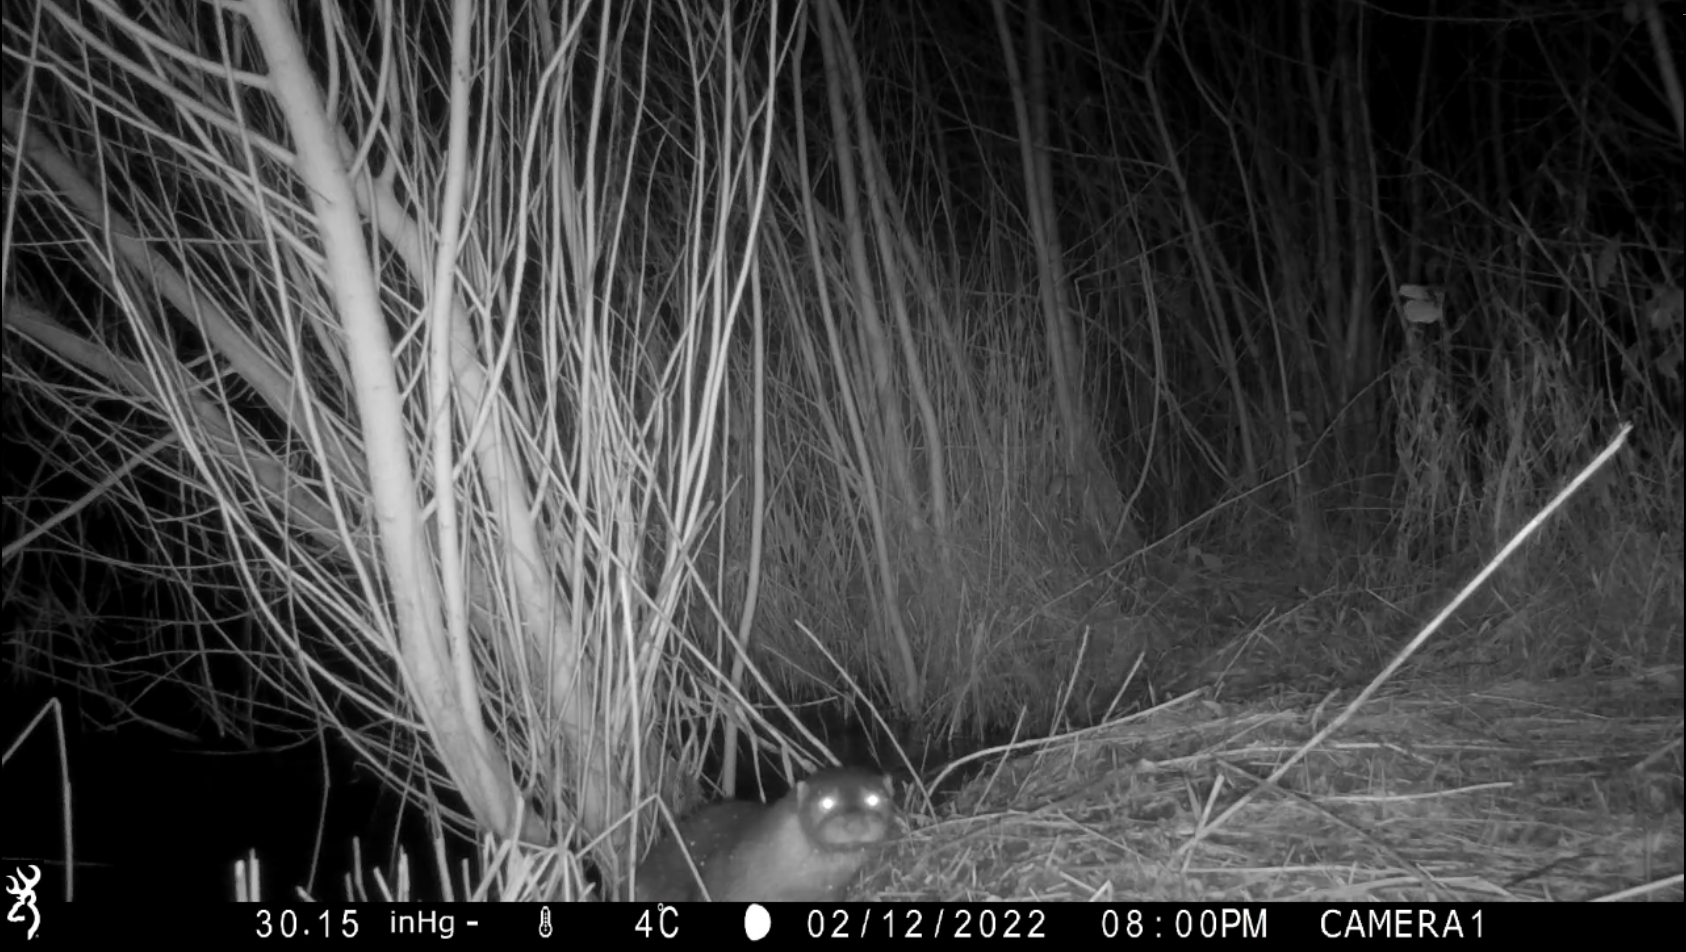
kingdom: Animalia
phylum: Chordata
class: Mammalia
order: Carnivora
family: Mustelidae
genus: Lutra
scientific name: Lutra lutra
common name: European otter
